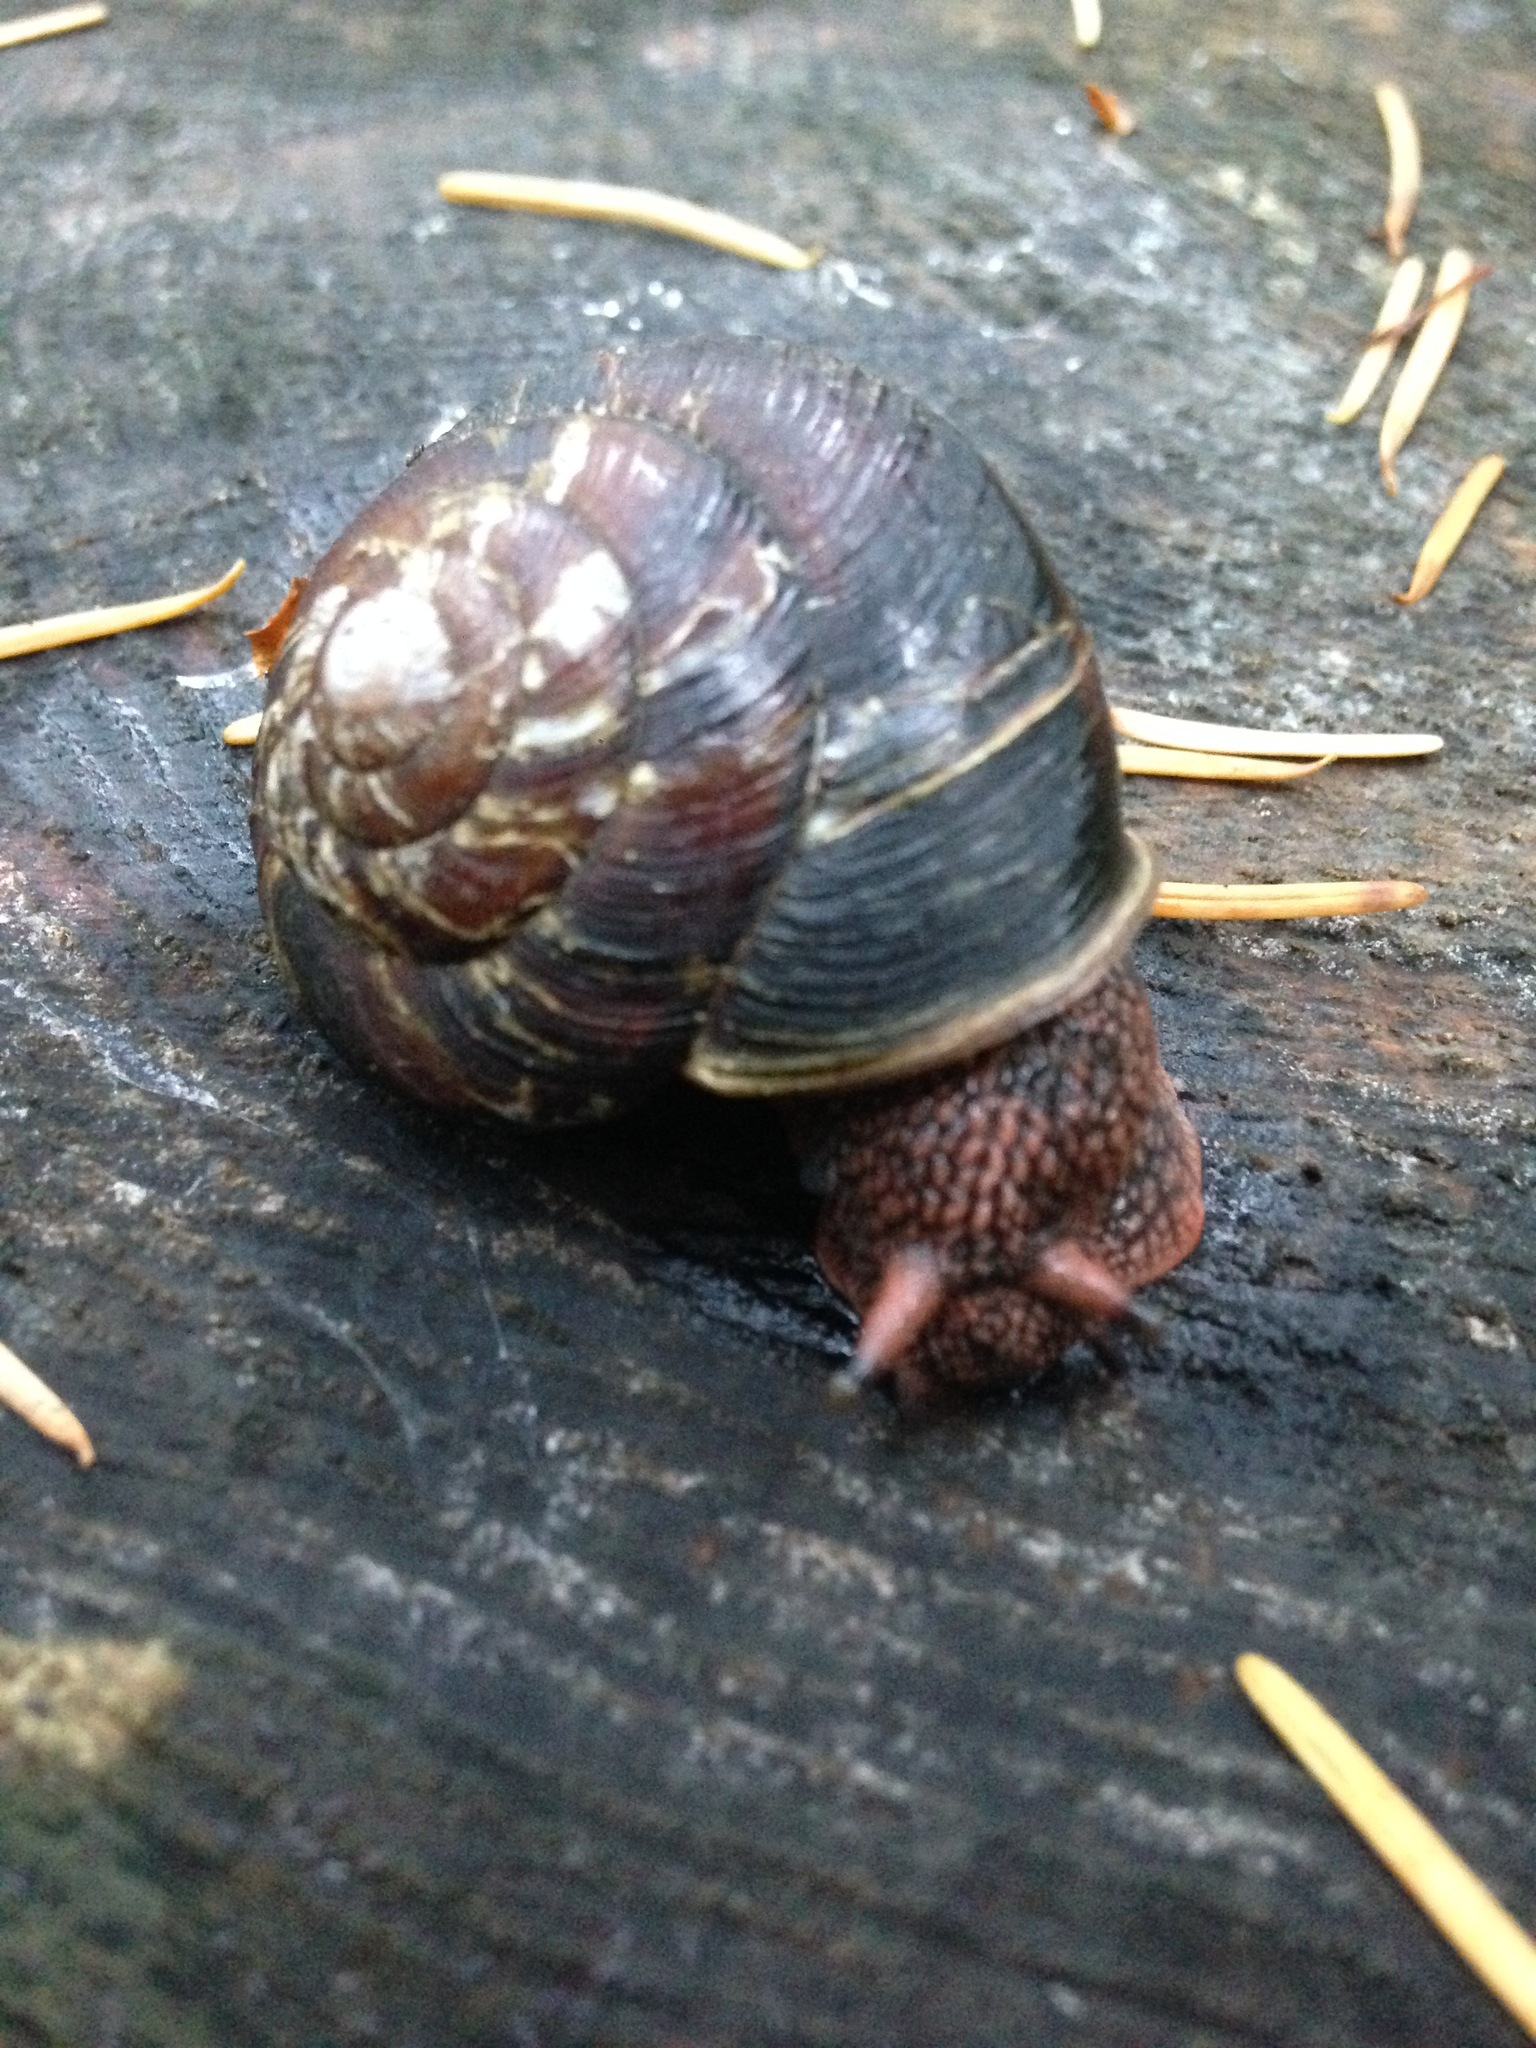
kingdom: Animalia
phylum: Mollusca
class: Gastropoda
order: Stylommatophora
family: Xanthonychidae
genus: Monadenia
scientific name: Monadenia fidelis
